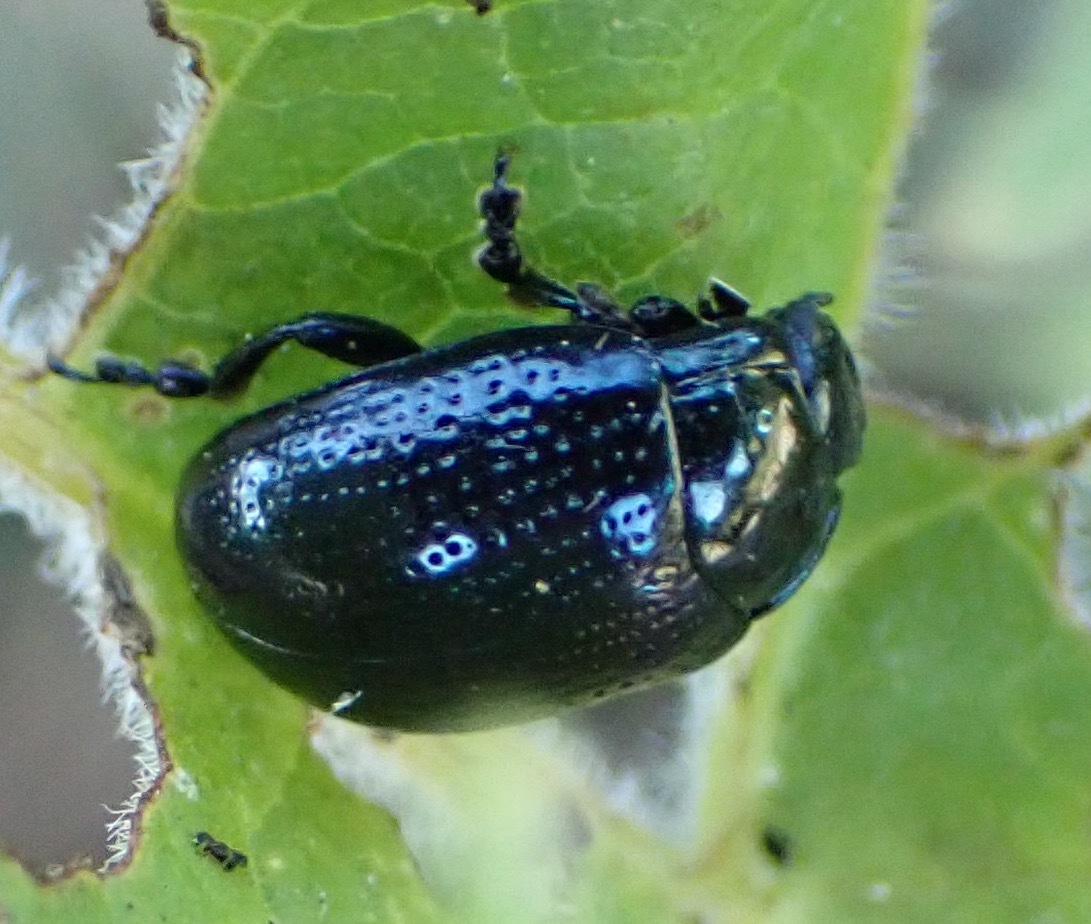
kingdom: Animalia
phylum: Arthropoda
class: Insecta
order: Coleoptera
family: Chrysomelidae
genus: Chrysolina
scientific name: Chrysolina oricalcia
